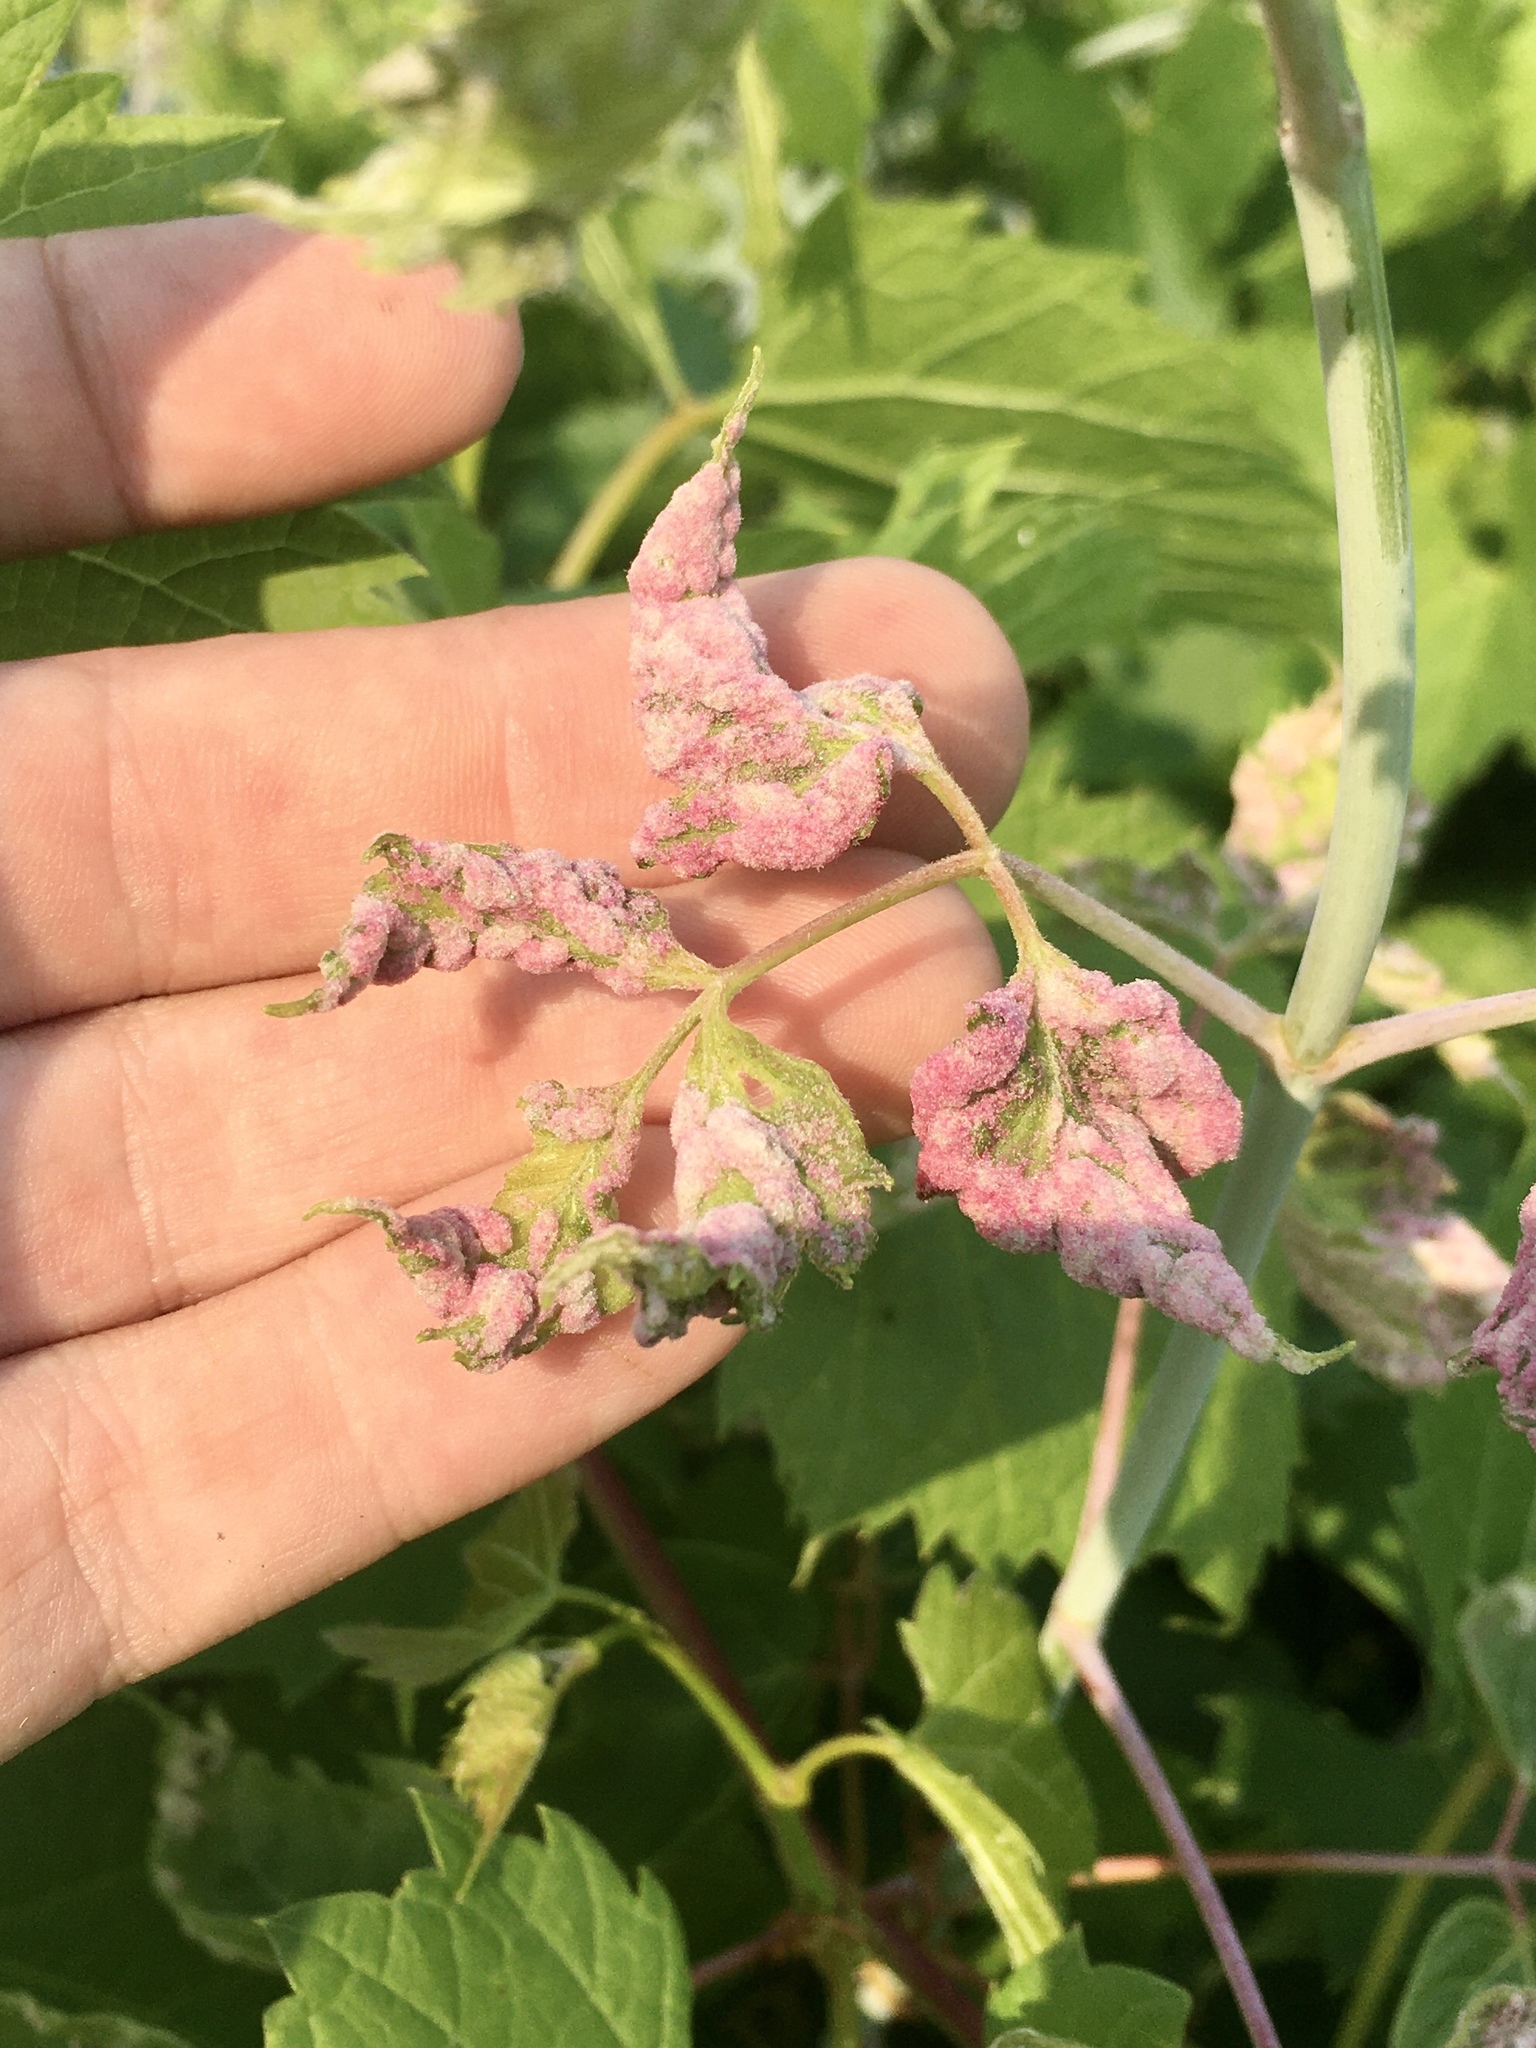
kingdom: Animalia
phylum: Arthropoda
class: Arachnida
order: Trombidiformes
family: Eriophyidae
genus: Aceria
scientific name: Aceria
